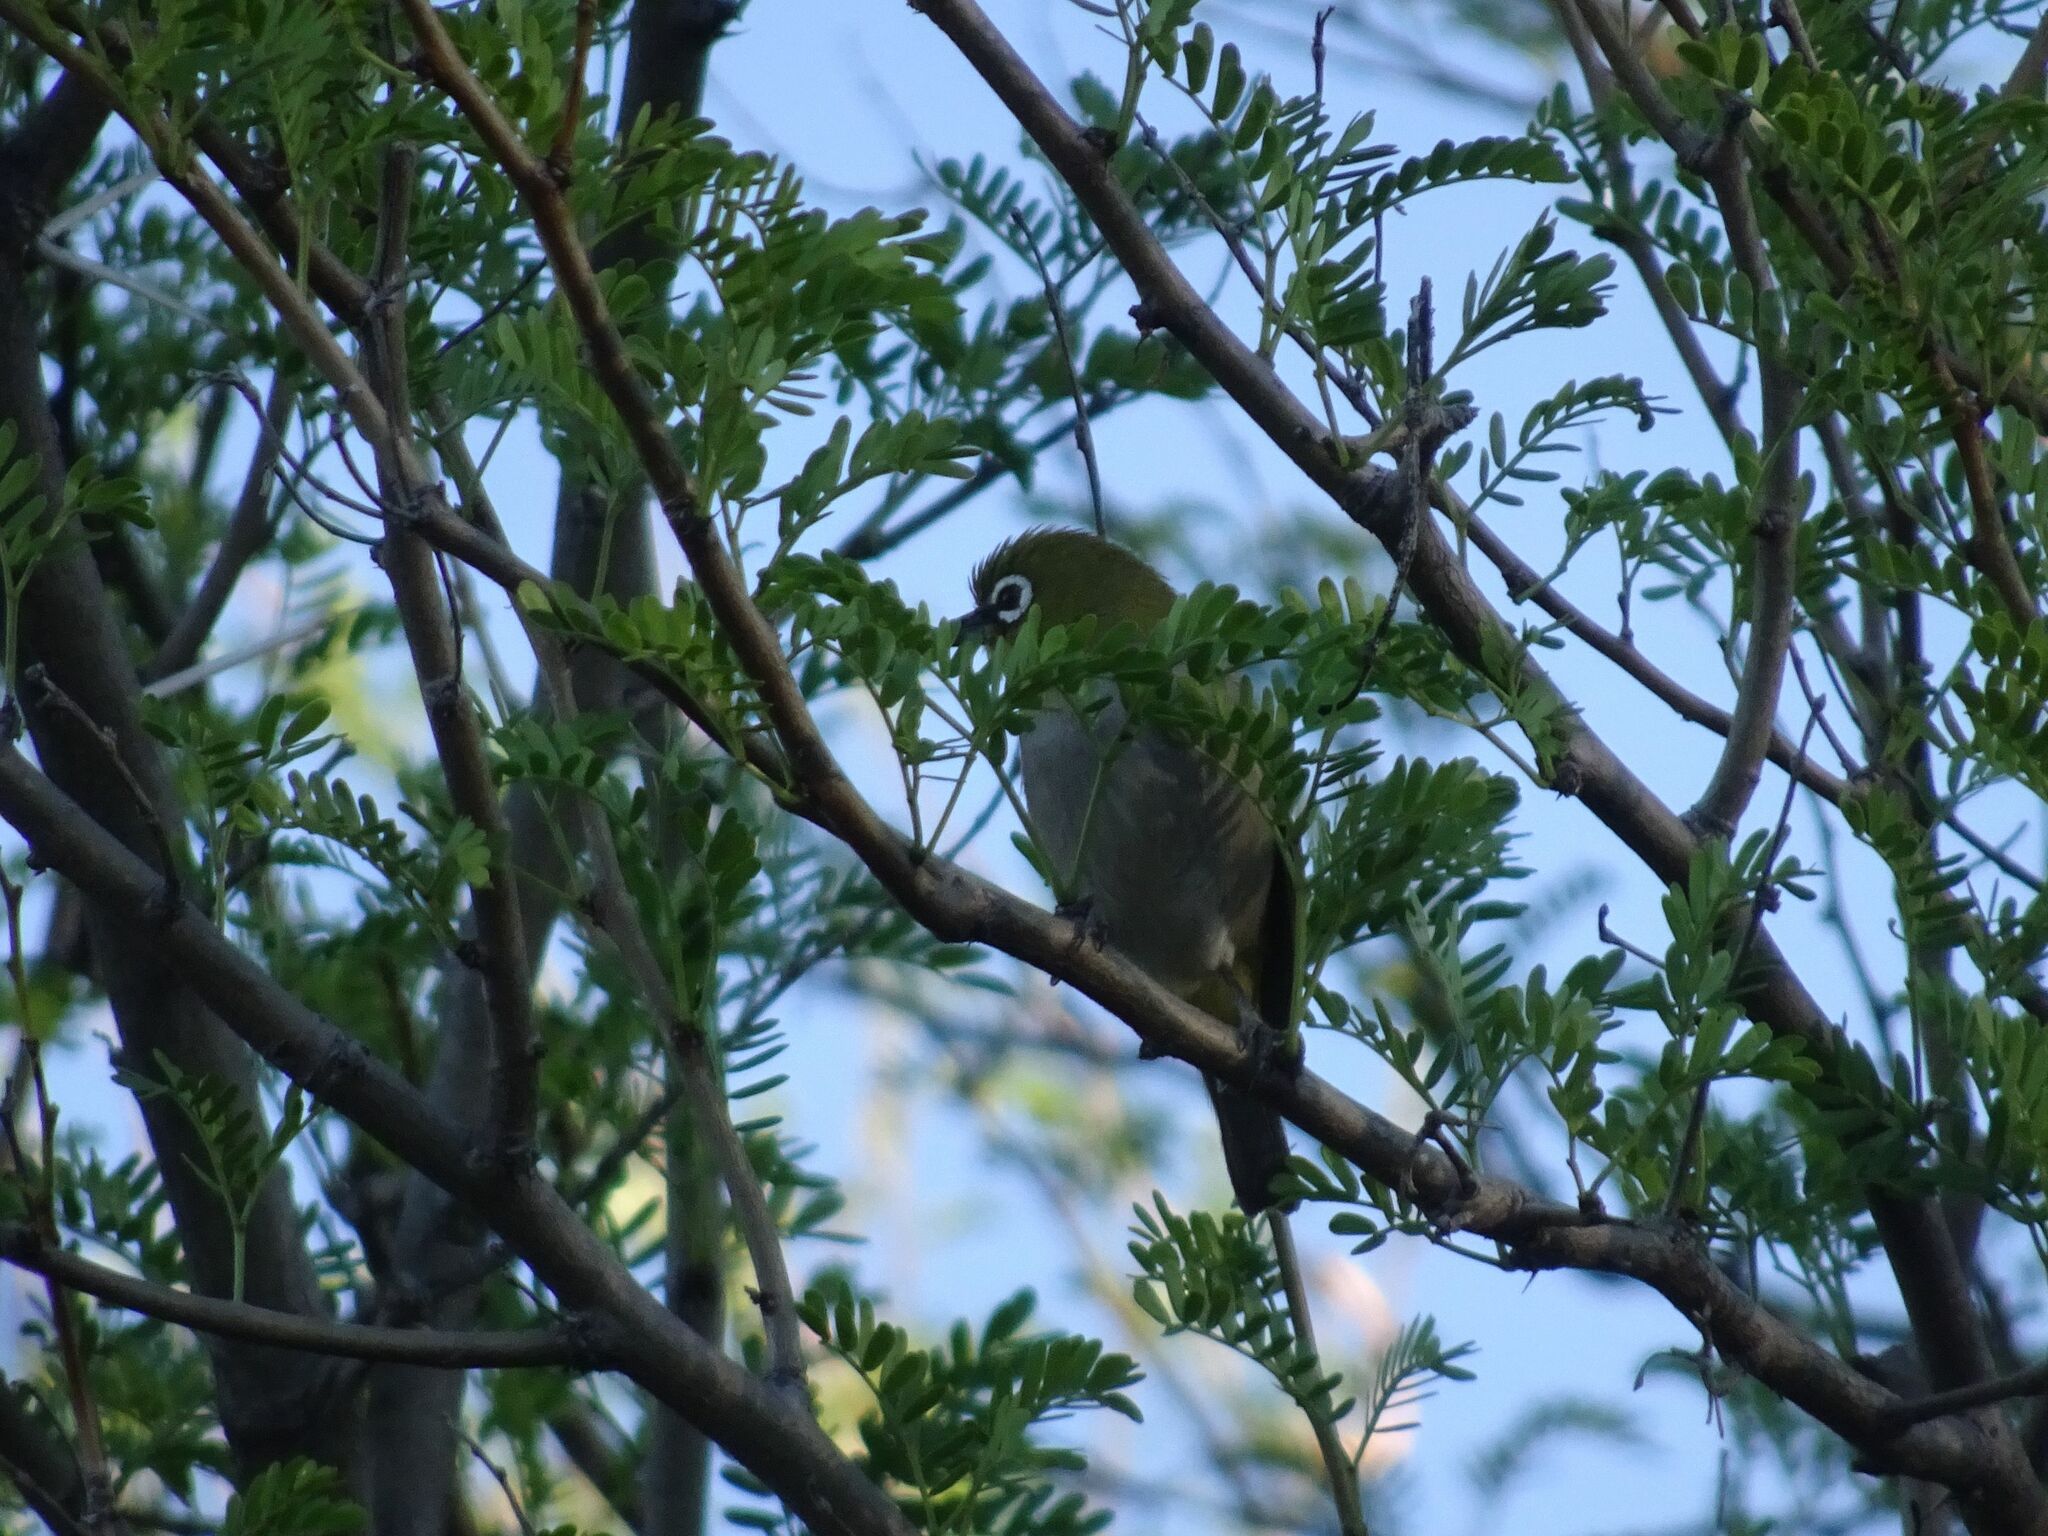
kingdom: Animalia
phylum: Chordata
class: Aves
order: Passeriformes
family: Zosteropidae
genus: Zosterops
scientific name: Zosterops virens
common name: Cape white-eye
